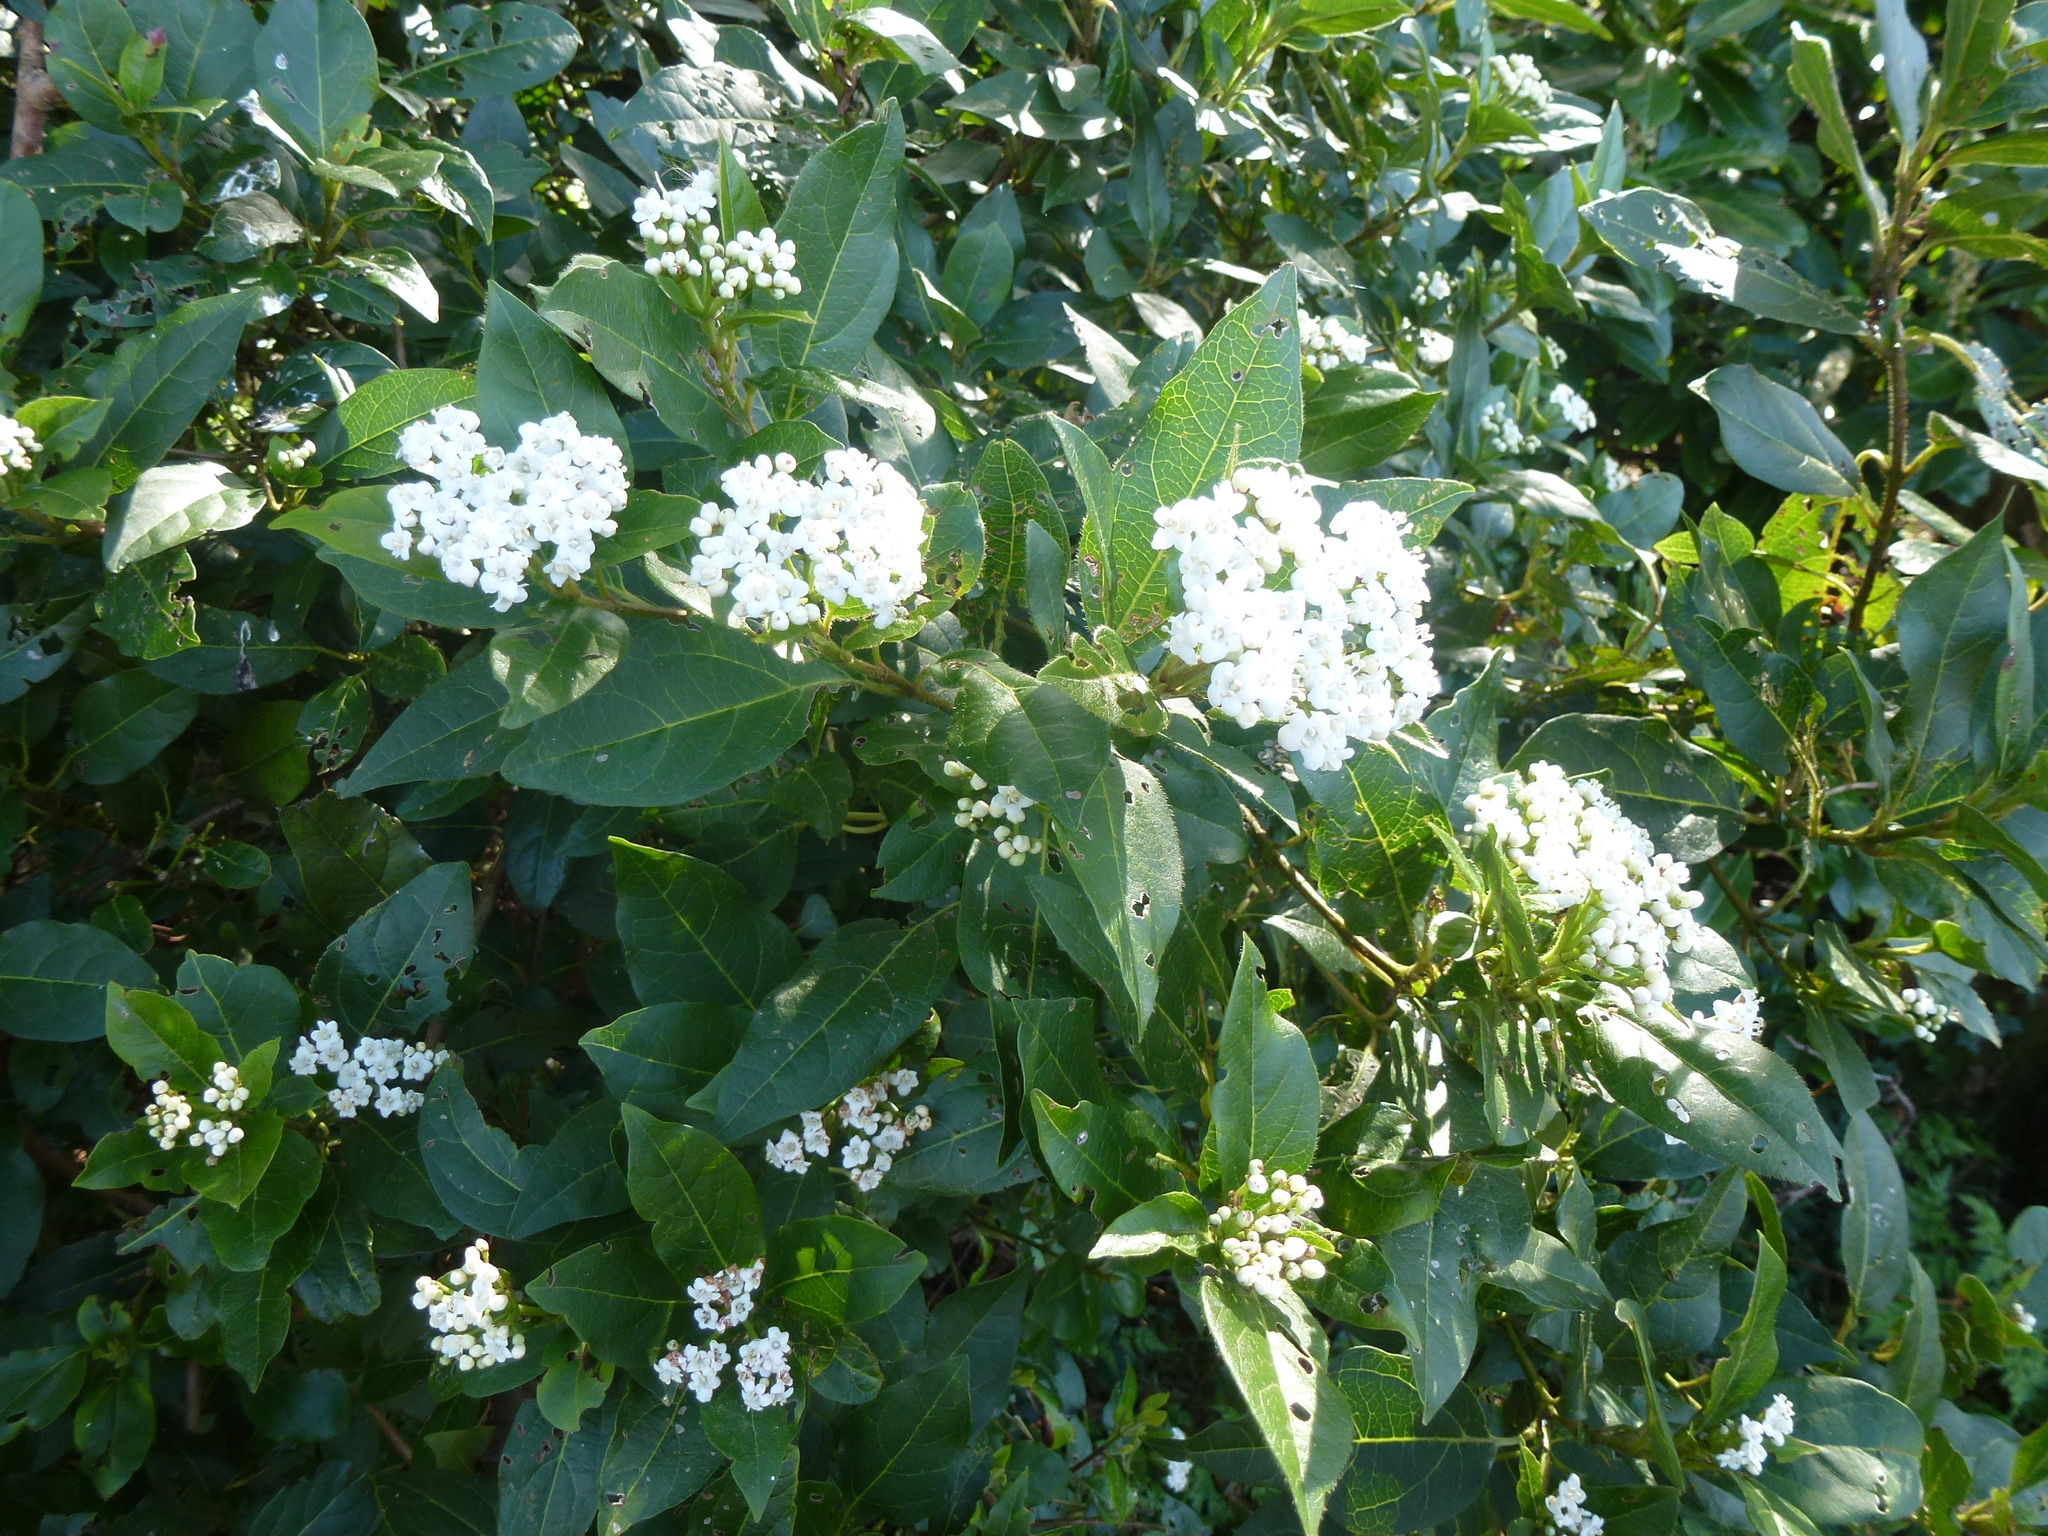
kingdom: Plantae
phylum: Tracheophyta
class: Magnoliopsida
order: Dipsacales
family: Viburnaceae
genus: Viburnum
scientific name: Viburnum tinus
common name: Laurustinus
